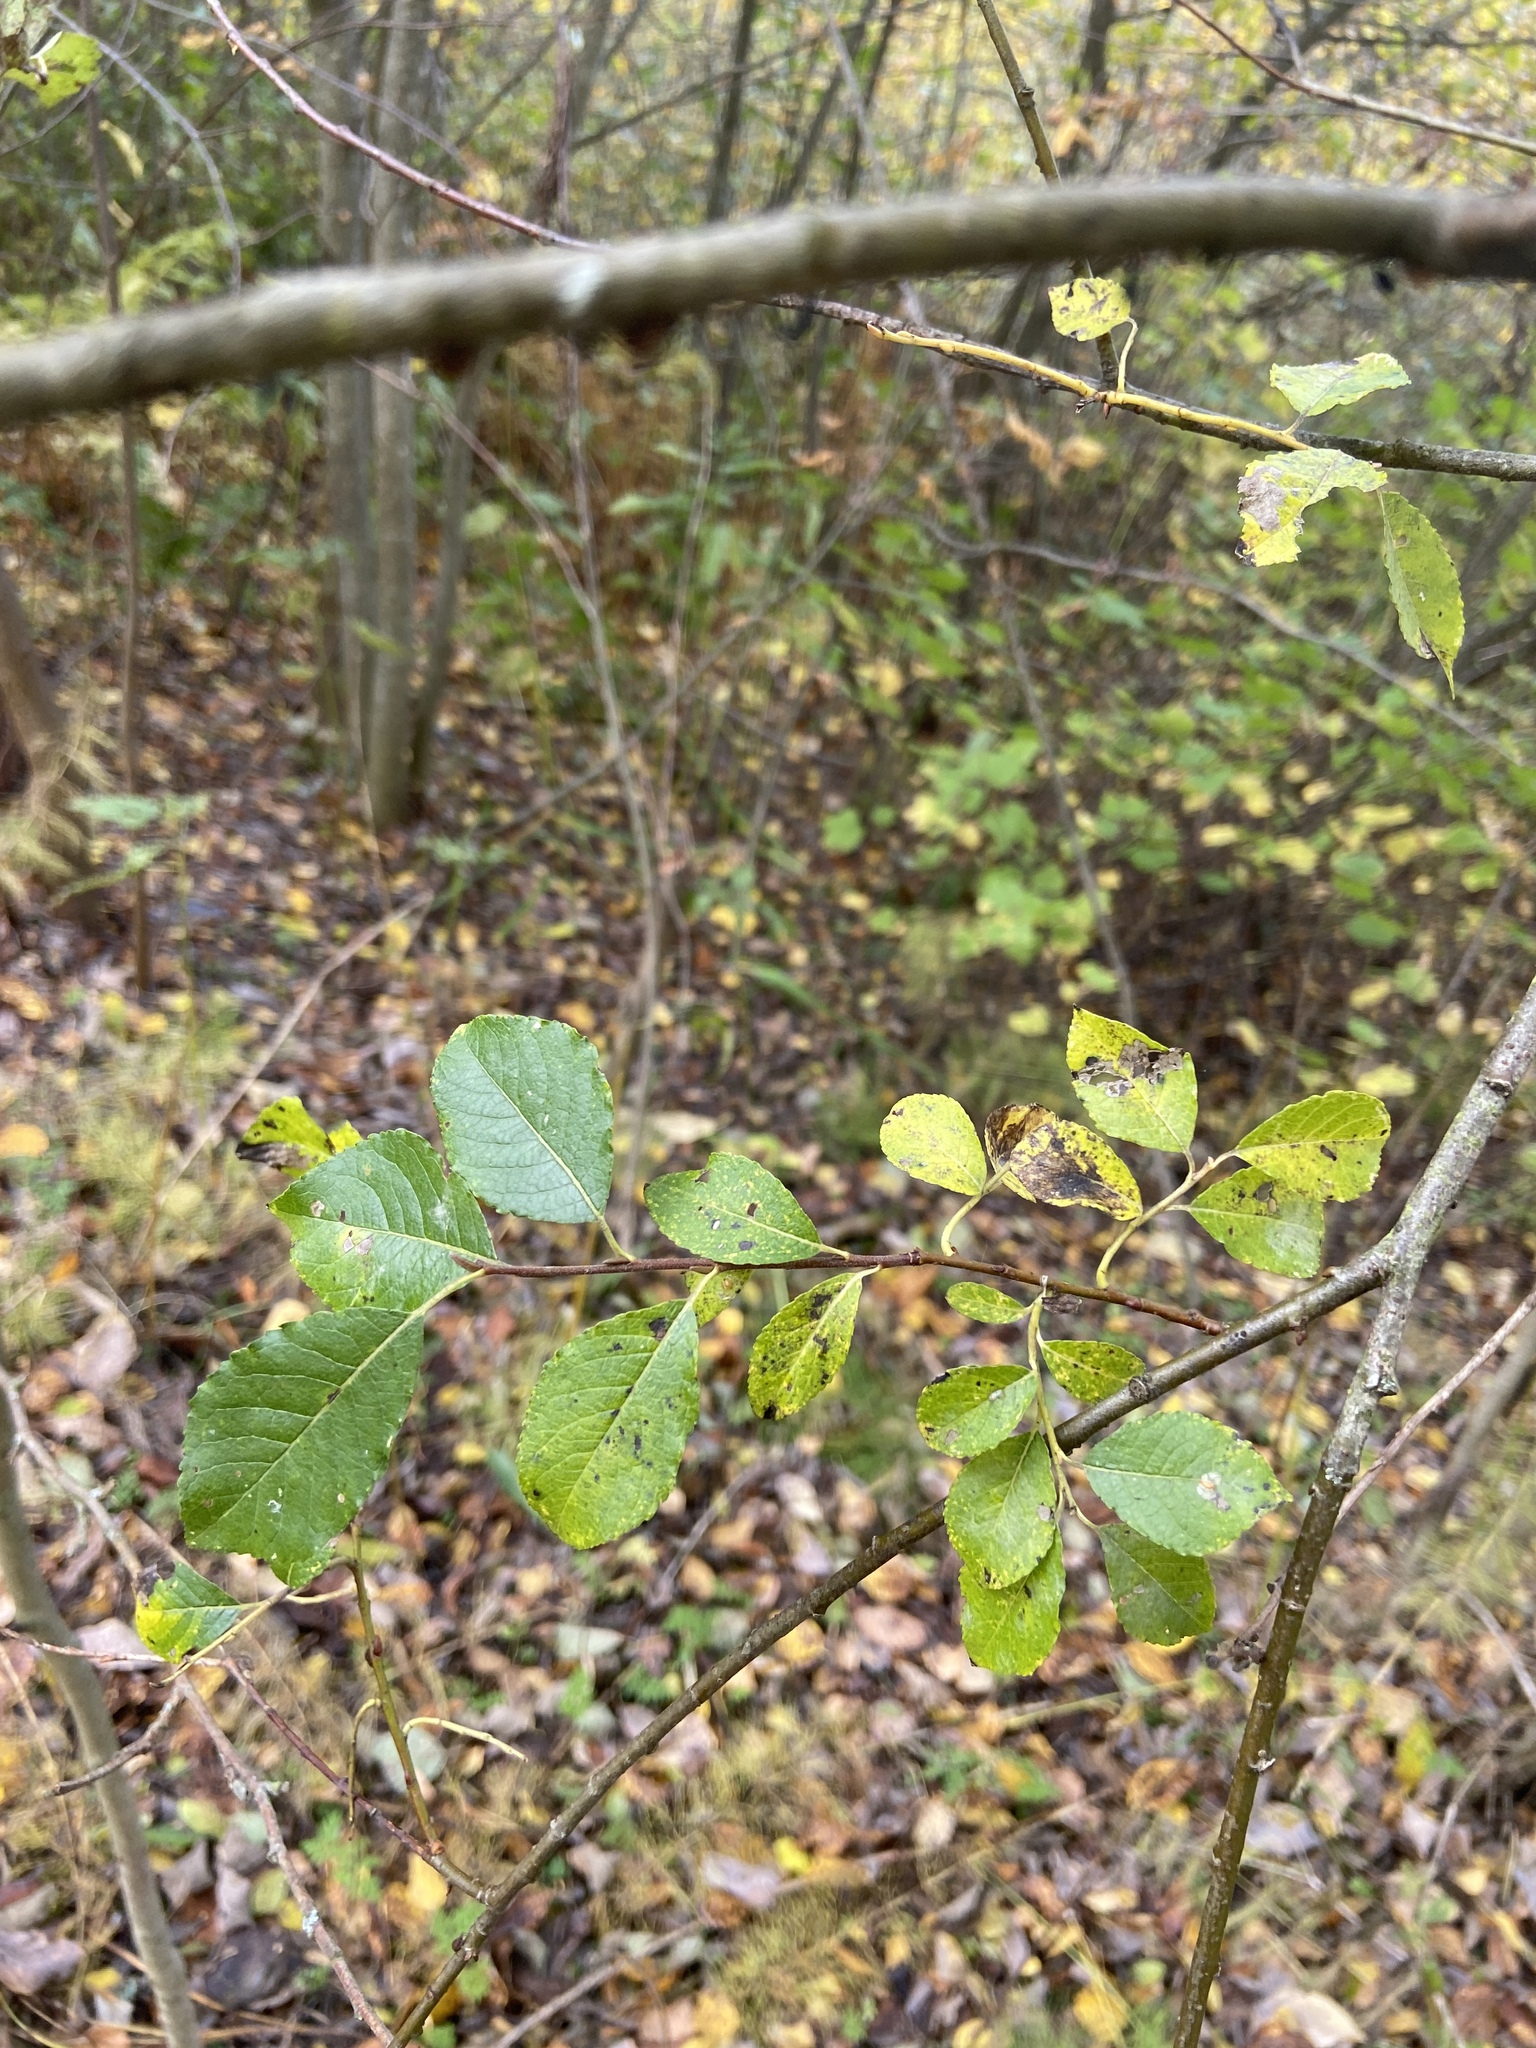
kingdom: Plantae
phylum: Tracheophyta
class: Magnoliopsida
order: Malpighiales
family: Salicaceae
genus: Salix
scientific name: Salix caprea
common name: Goat willow
